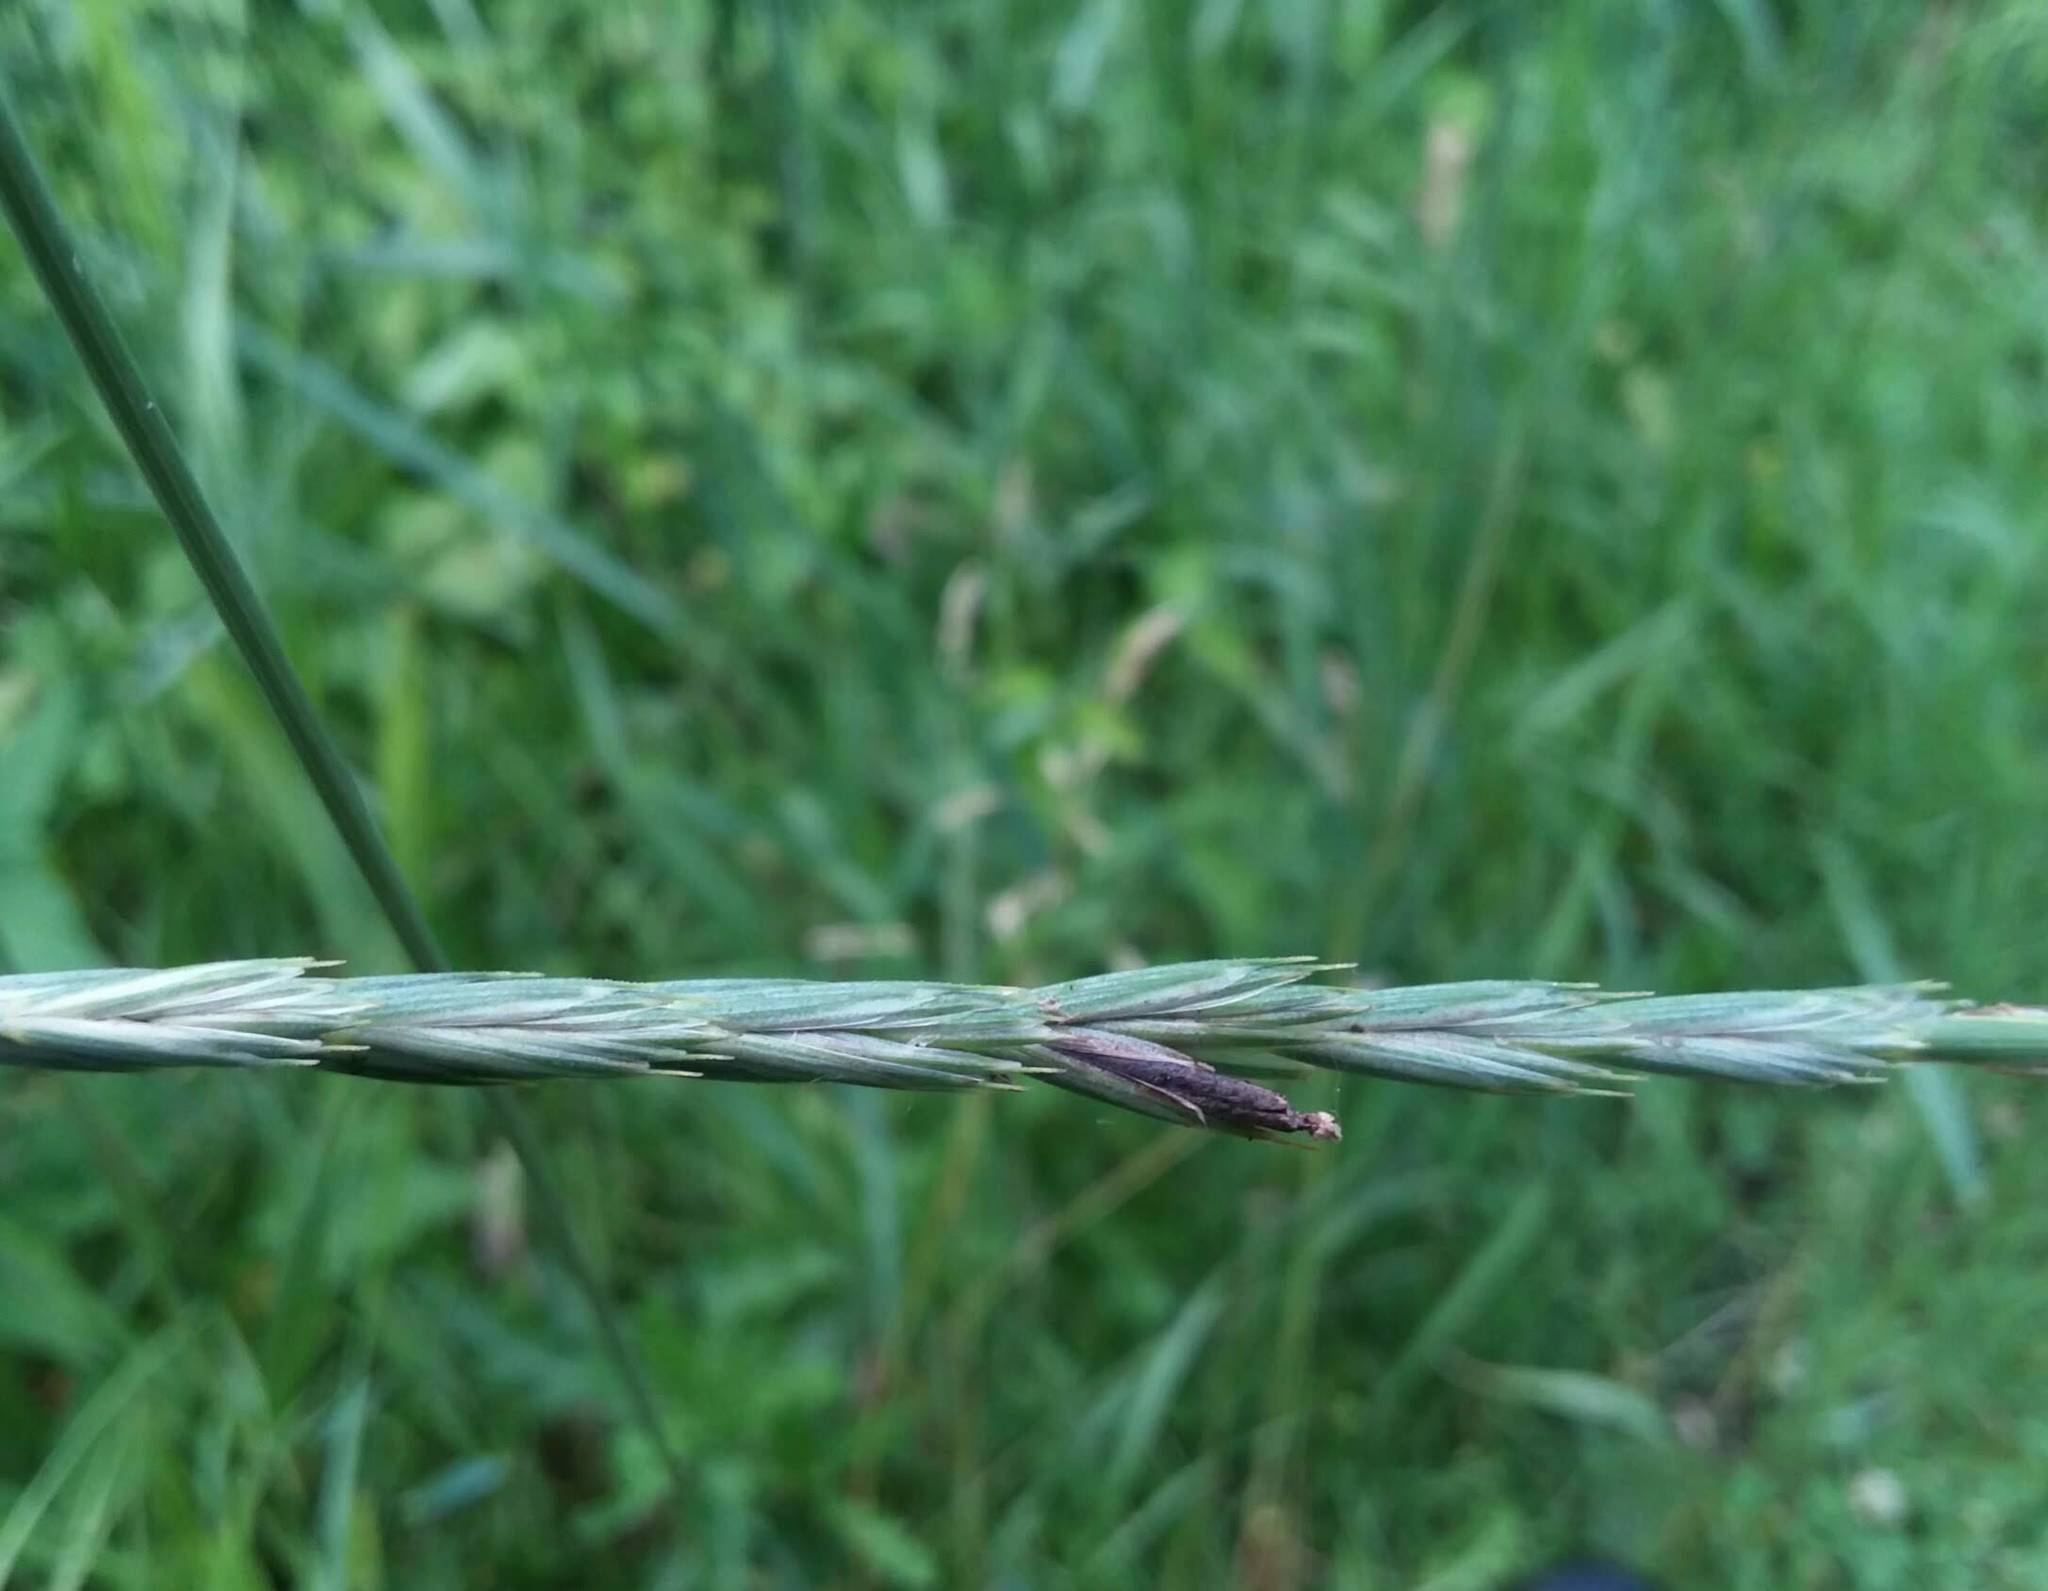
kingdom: Fungi
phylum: Ascomycota
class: Sordariomycetes
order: Hypocreales
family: Clavicipitaceae
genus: Claviceps
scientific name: Claviceps purpurea
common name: Rye ergot
